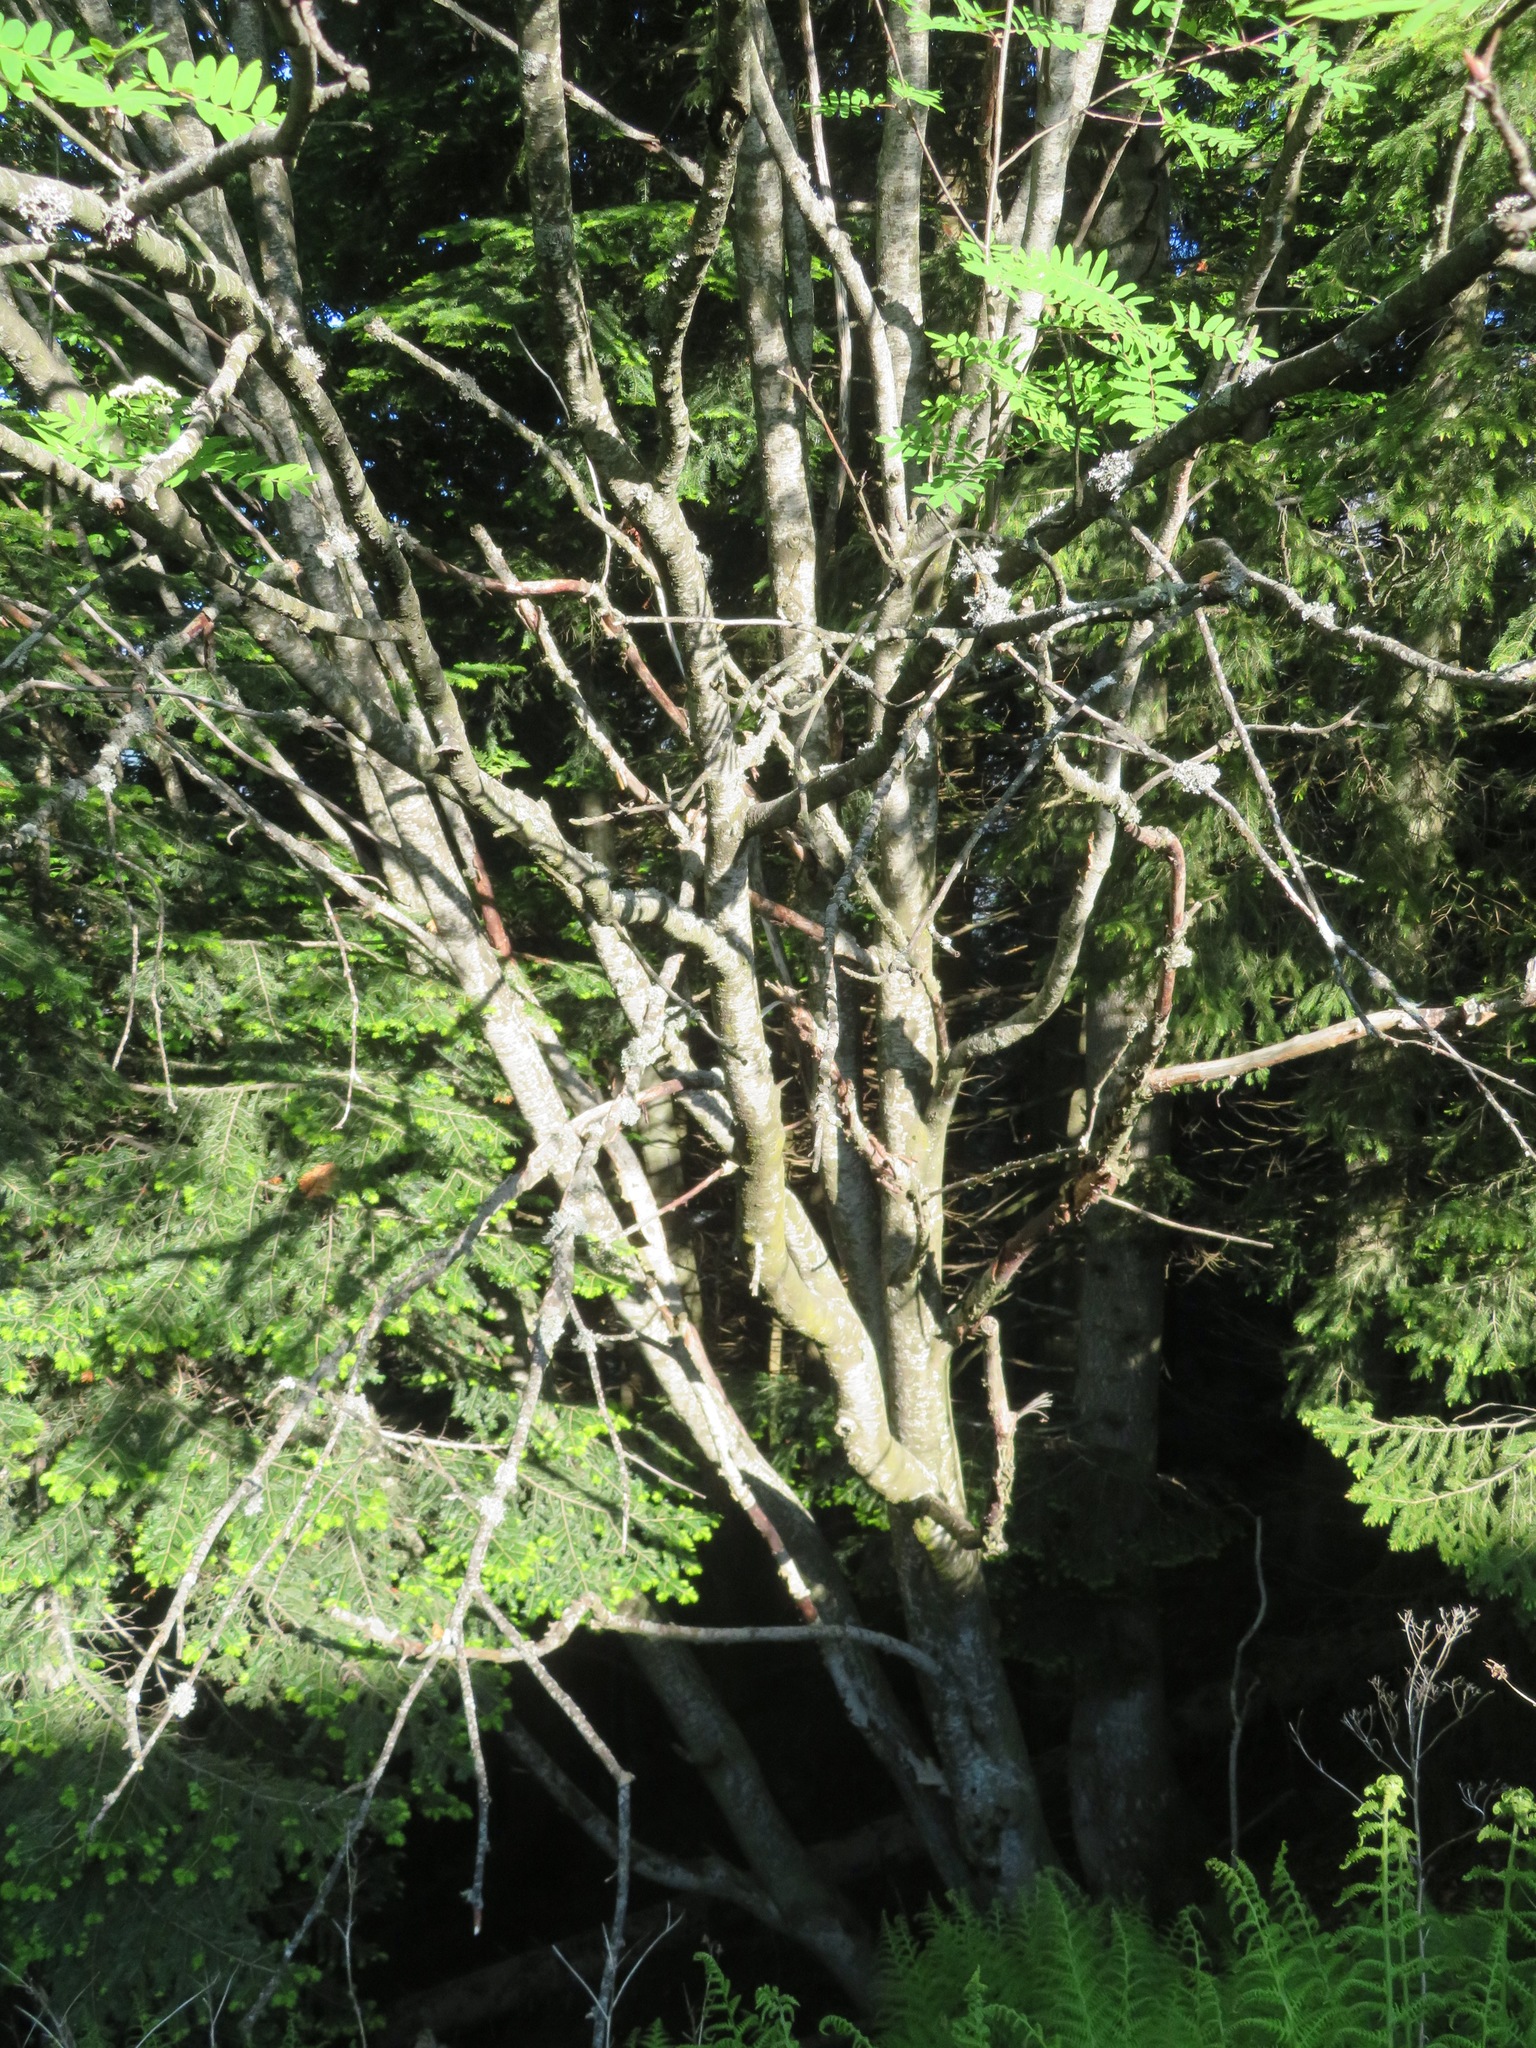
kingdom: Plantae
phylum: Tracheophyta
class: Magnoliopsida
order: Rosales
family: Rosaceae
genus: Sorbus
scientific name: Sorbus aucuparia
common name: Rowan
